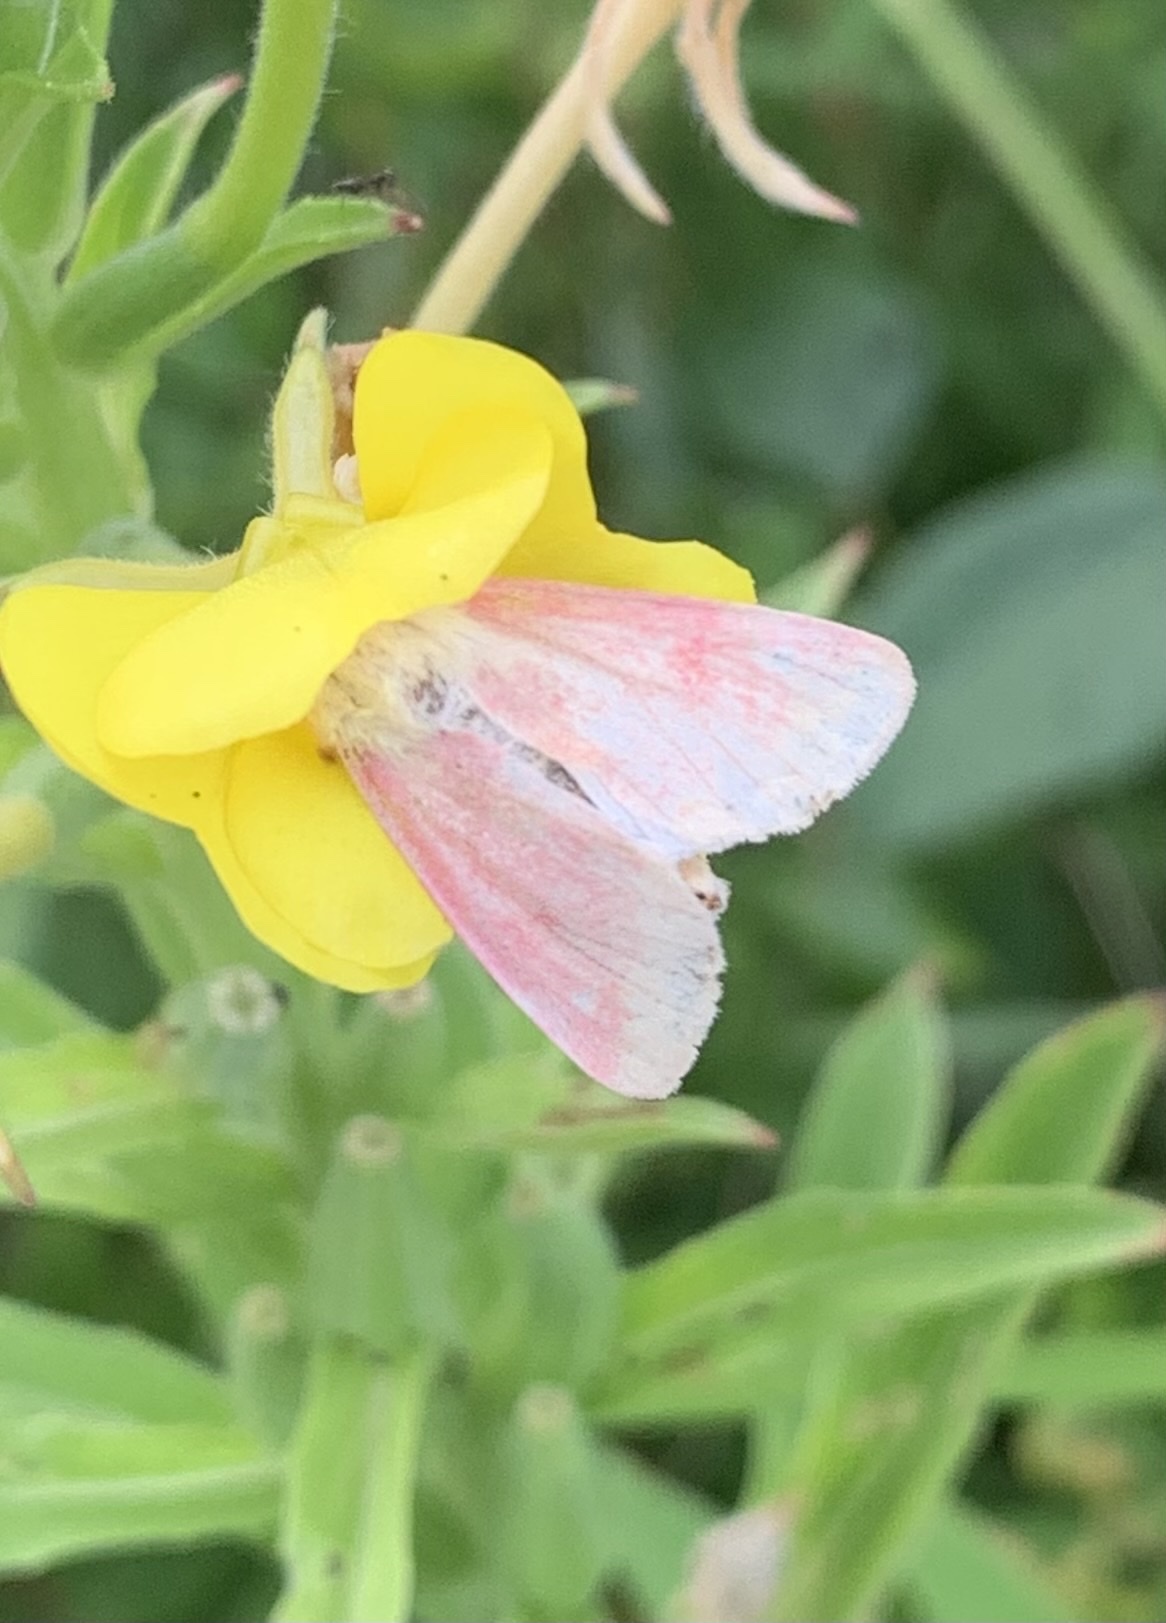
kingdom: Animalia
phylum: Arthropoda
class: Insecta
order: Lepidoptera
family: Noctuidae
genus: Schinia
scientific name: Schinia florida
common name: Primrose moth
